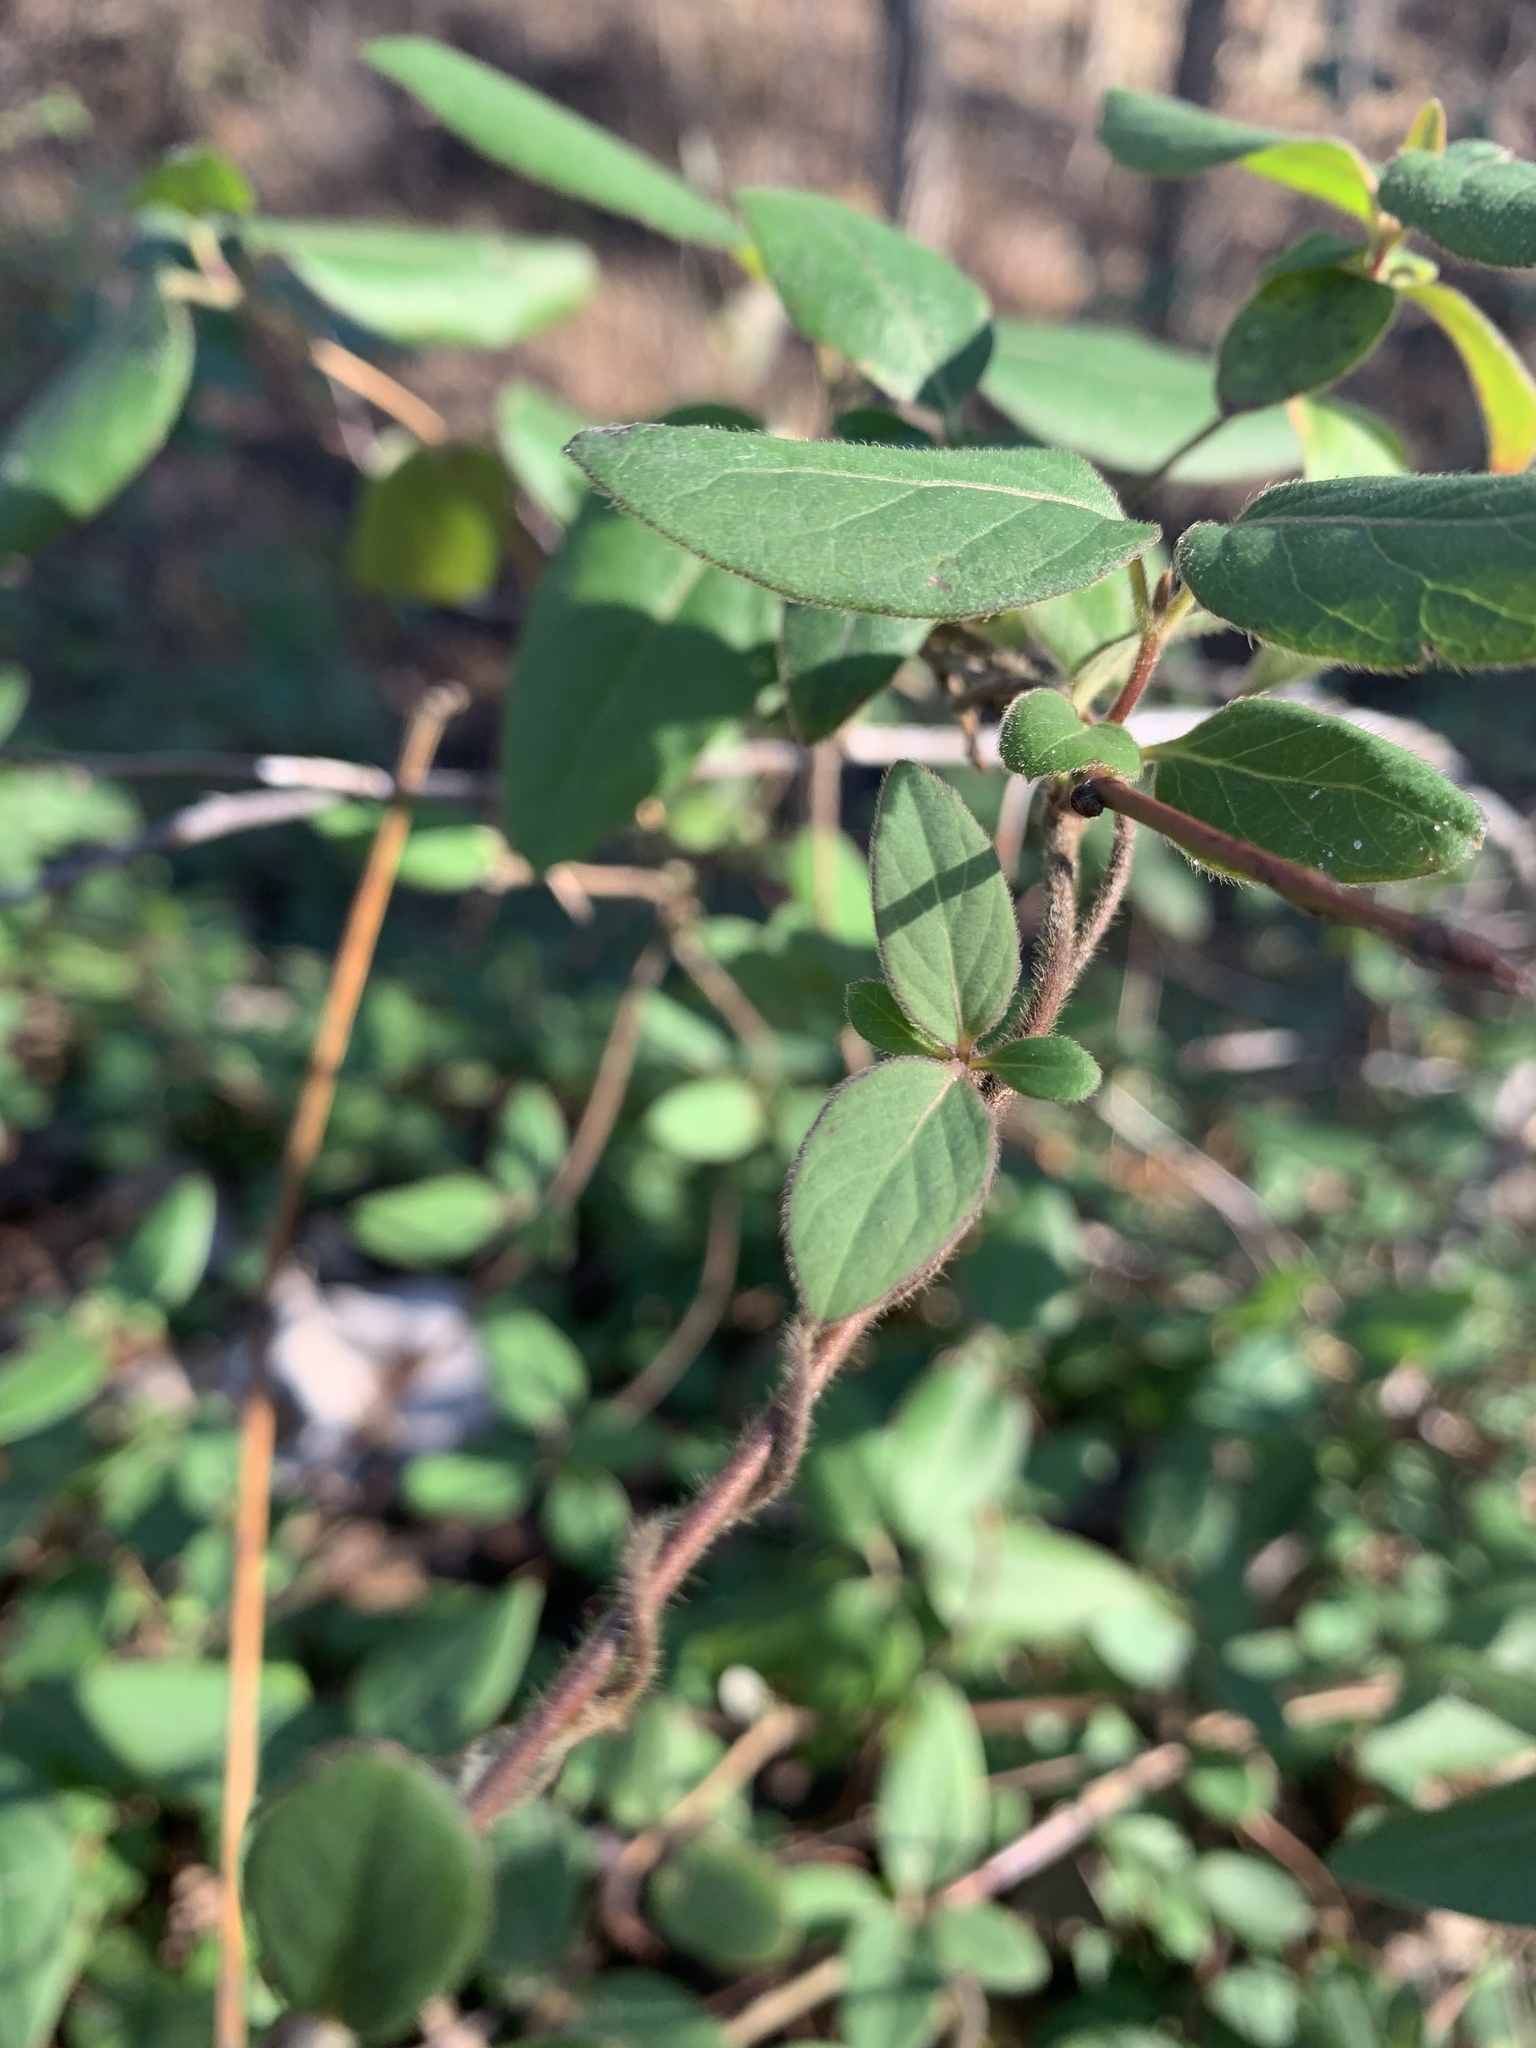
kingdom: Plantae
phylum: Tracheophyta
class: Magnoliopsida
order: Dipsacales
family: Caprifoliaceae
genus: Lonicera
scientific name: Lonicera japonica
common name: Japanese honeysuckle
